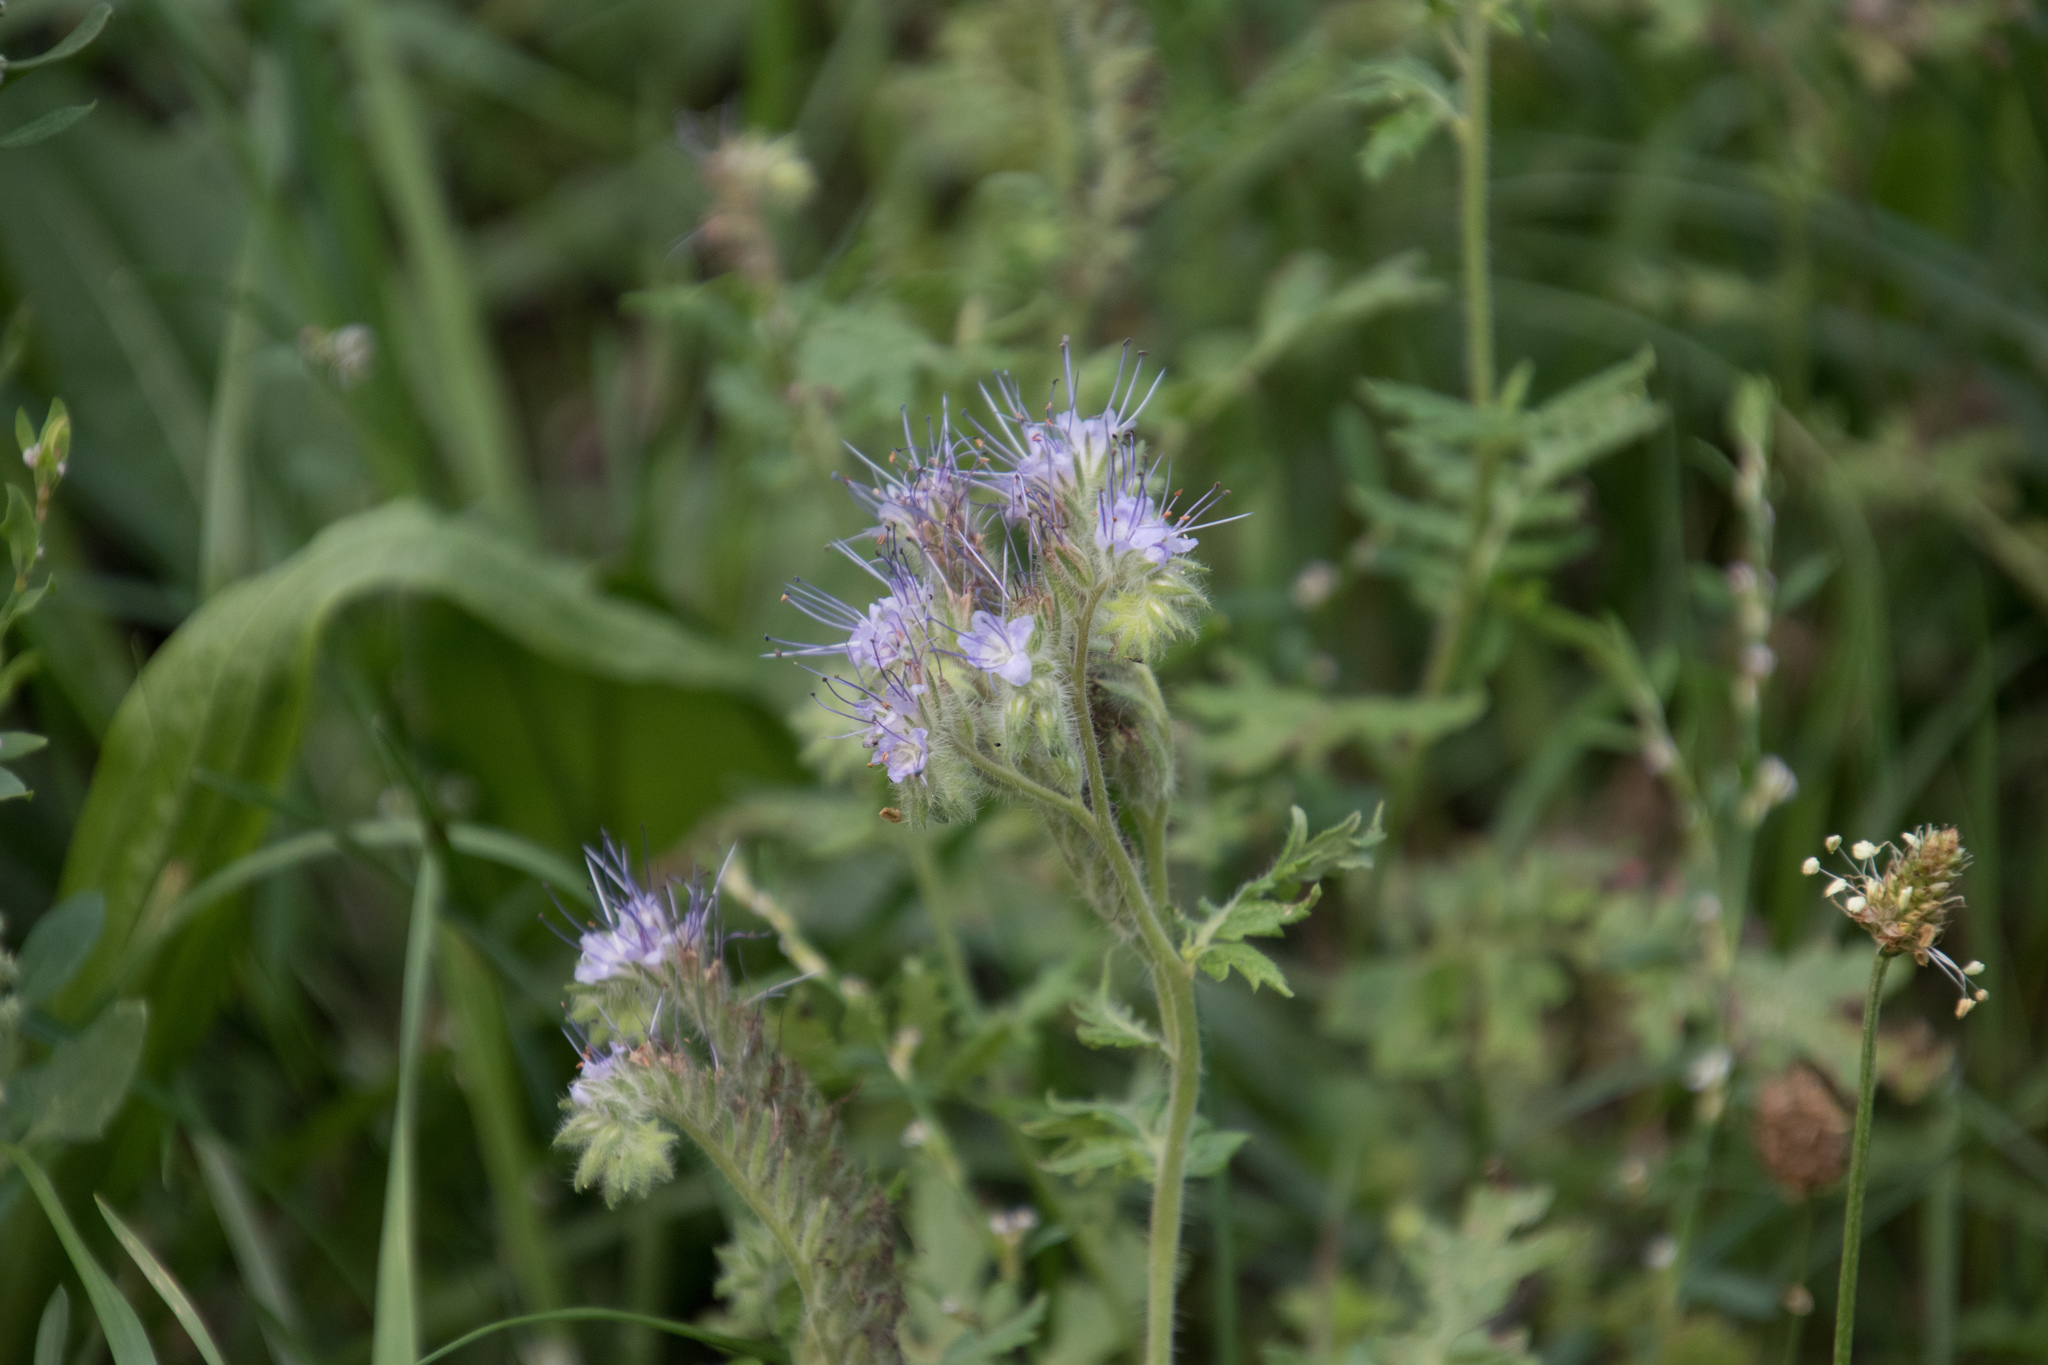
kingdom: Plantae
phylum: Tracheophyta
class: Magnoliopsida
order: Boraginales
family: Hydrophyllaceae
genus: Phacelia
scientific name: Phacelia tanacetifolia
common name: Phacelia
